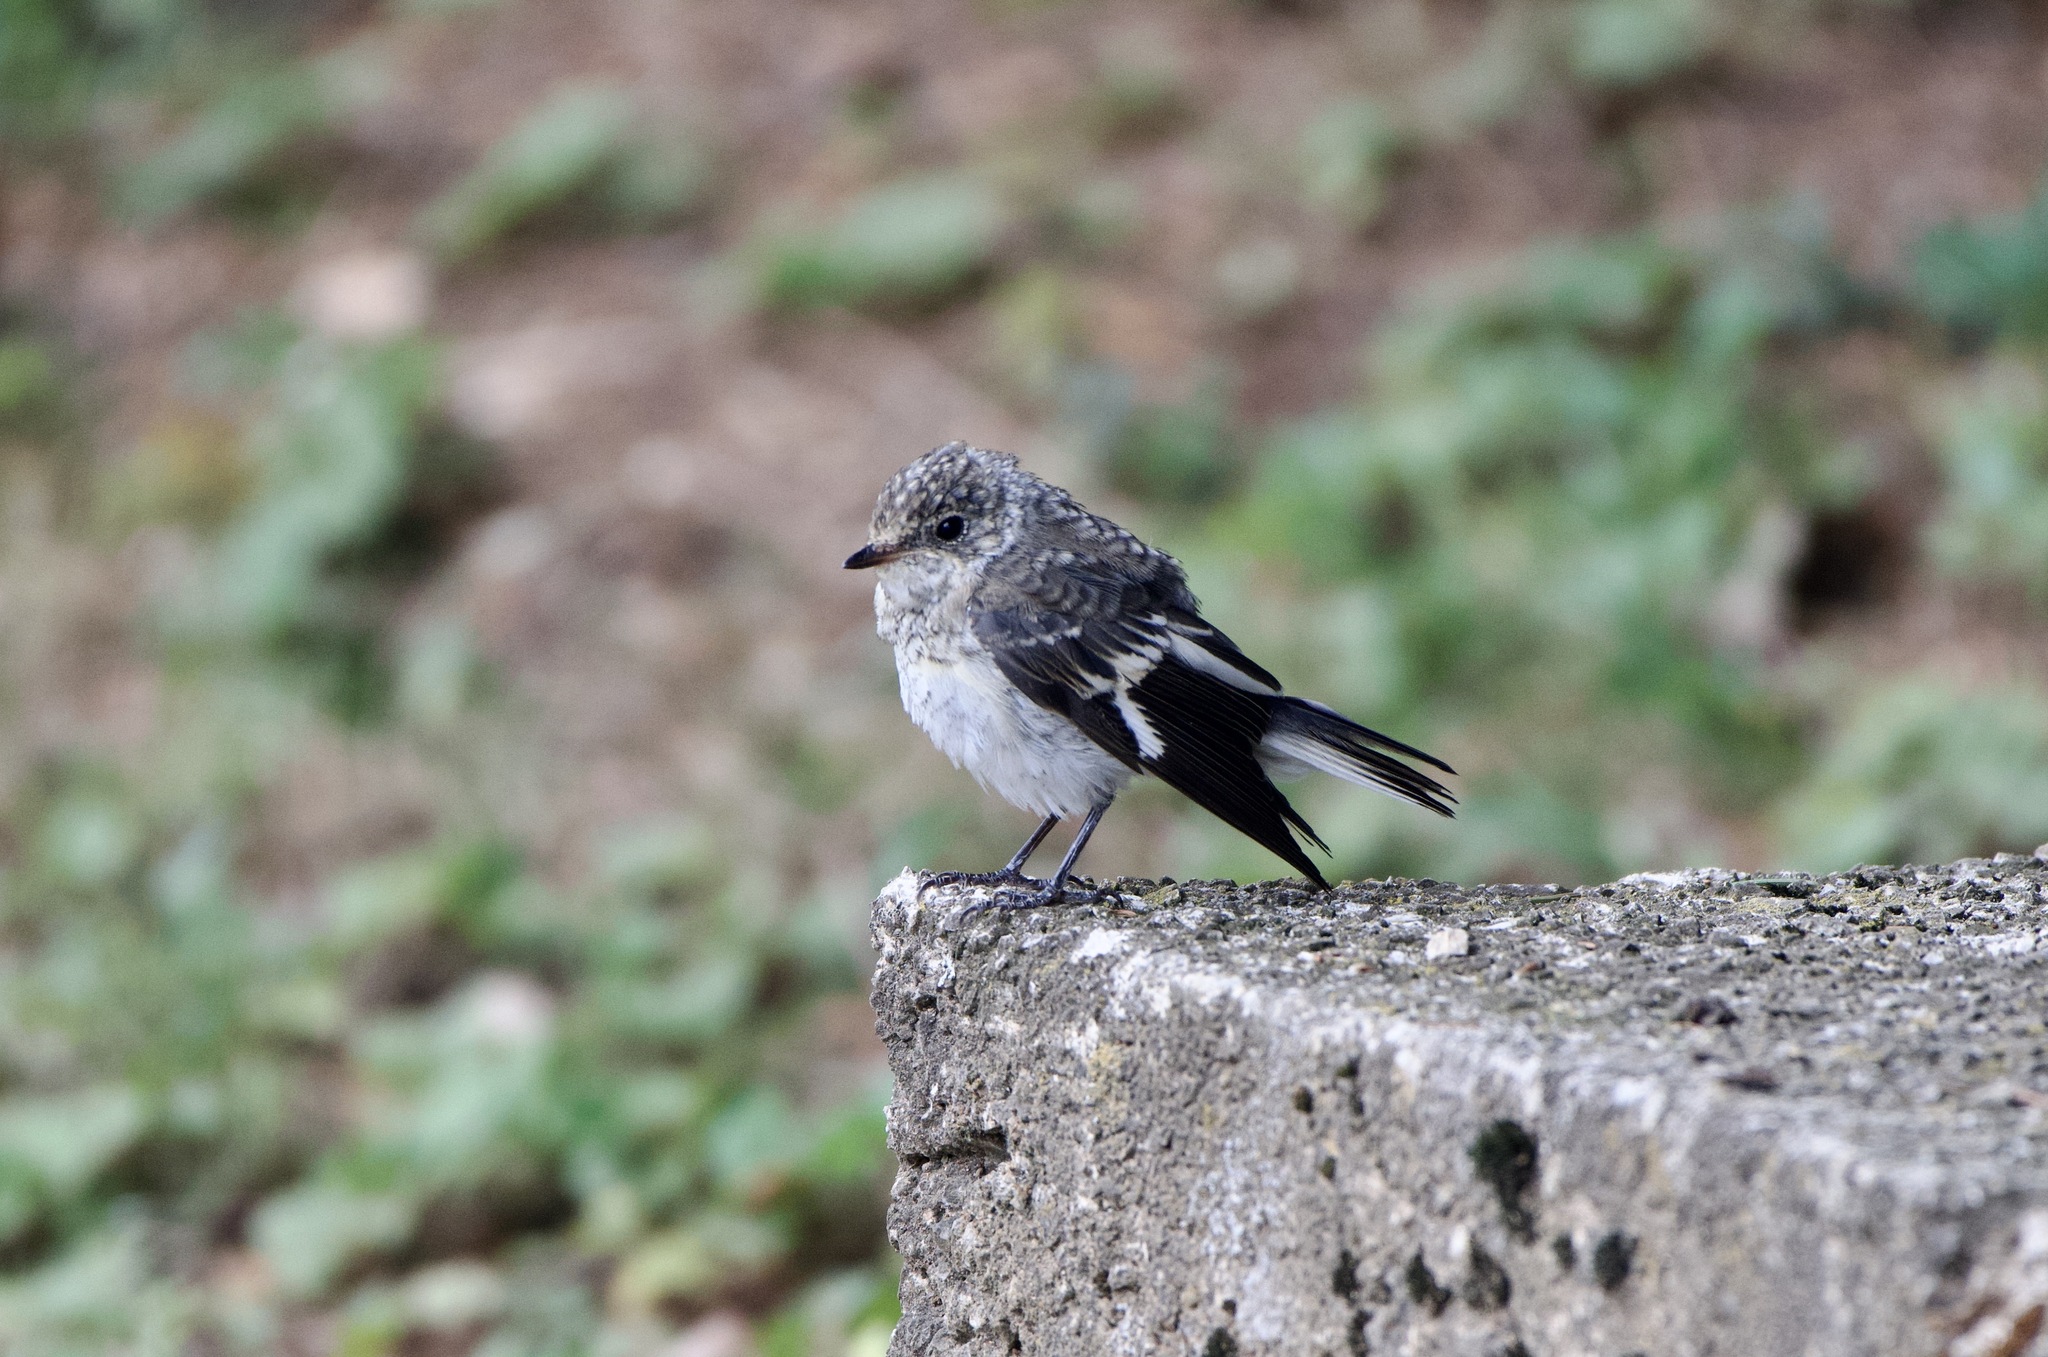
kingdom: Animalia
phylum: Chordata
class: Aves
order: Passeriformes
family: Muscicapidae
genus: Ficedula
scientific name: Ficedula albicollis
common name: Collared flycatcher
